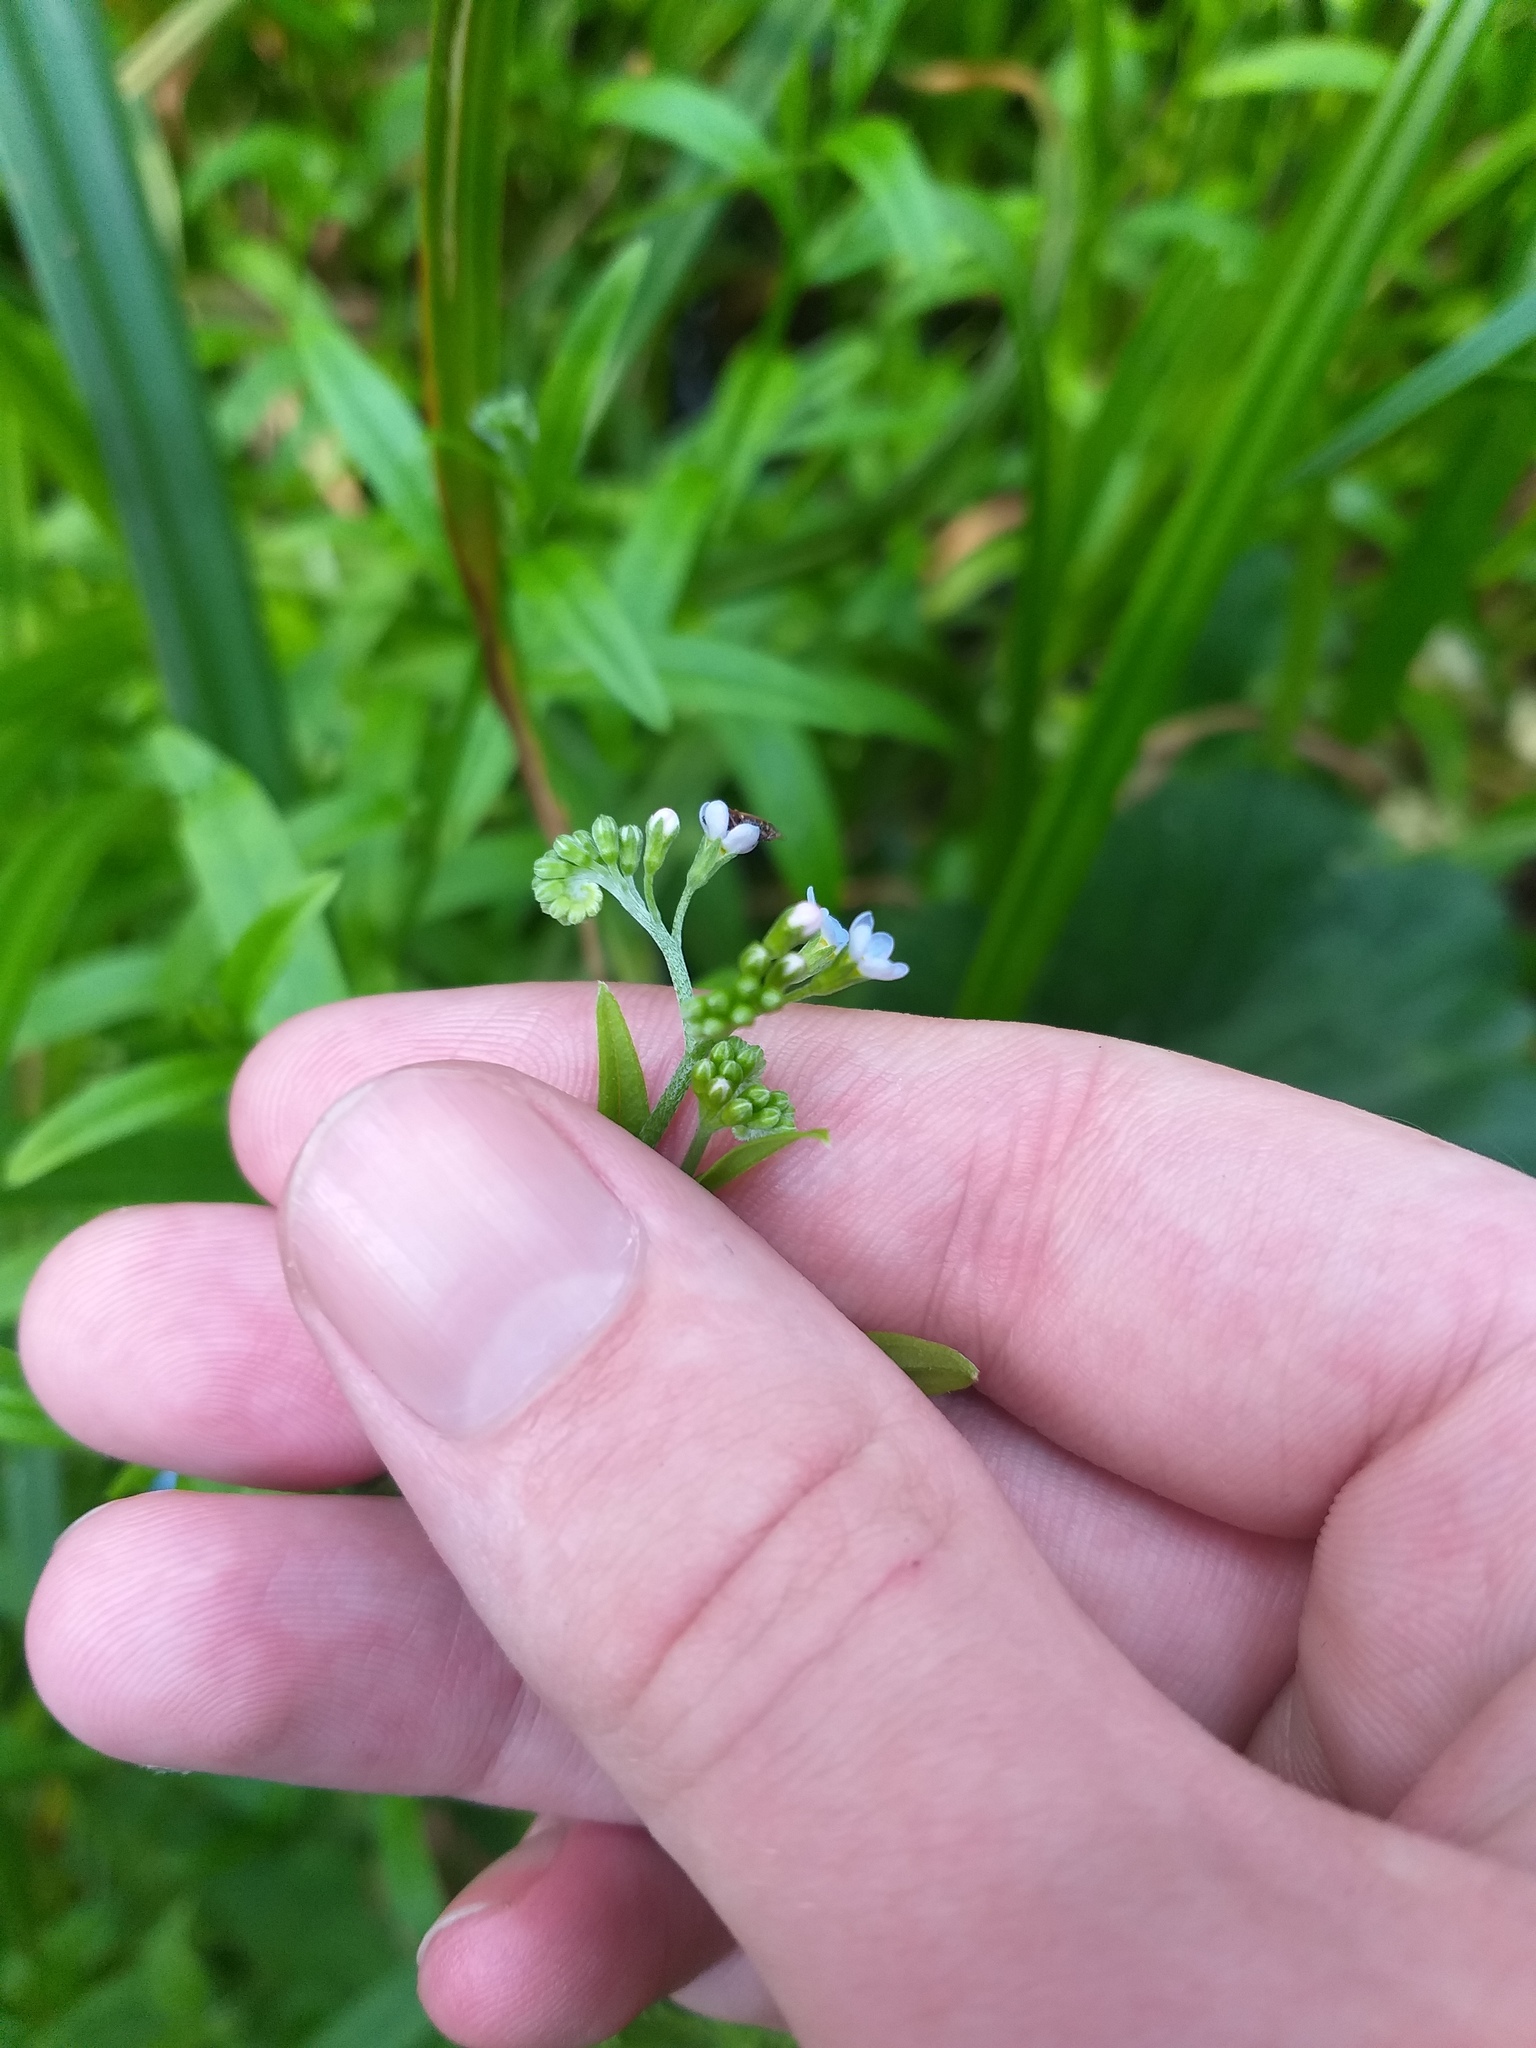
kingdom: Plantae
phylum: Tracheophyta
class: Magnoliopsida
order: Boraginales
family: Boraginaceae
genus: Myosotis
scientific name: Myosotis scorpioides
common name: Water forget-me-not
